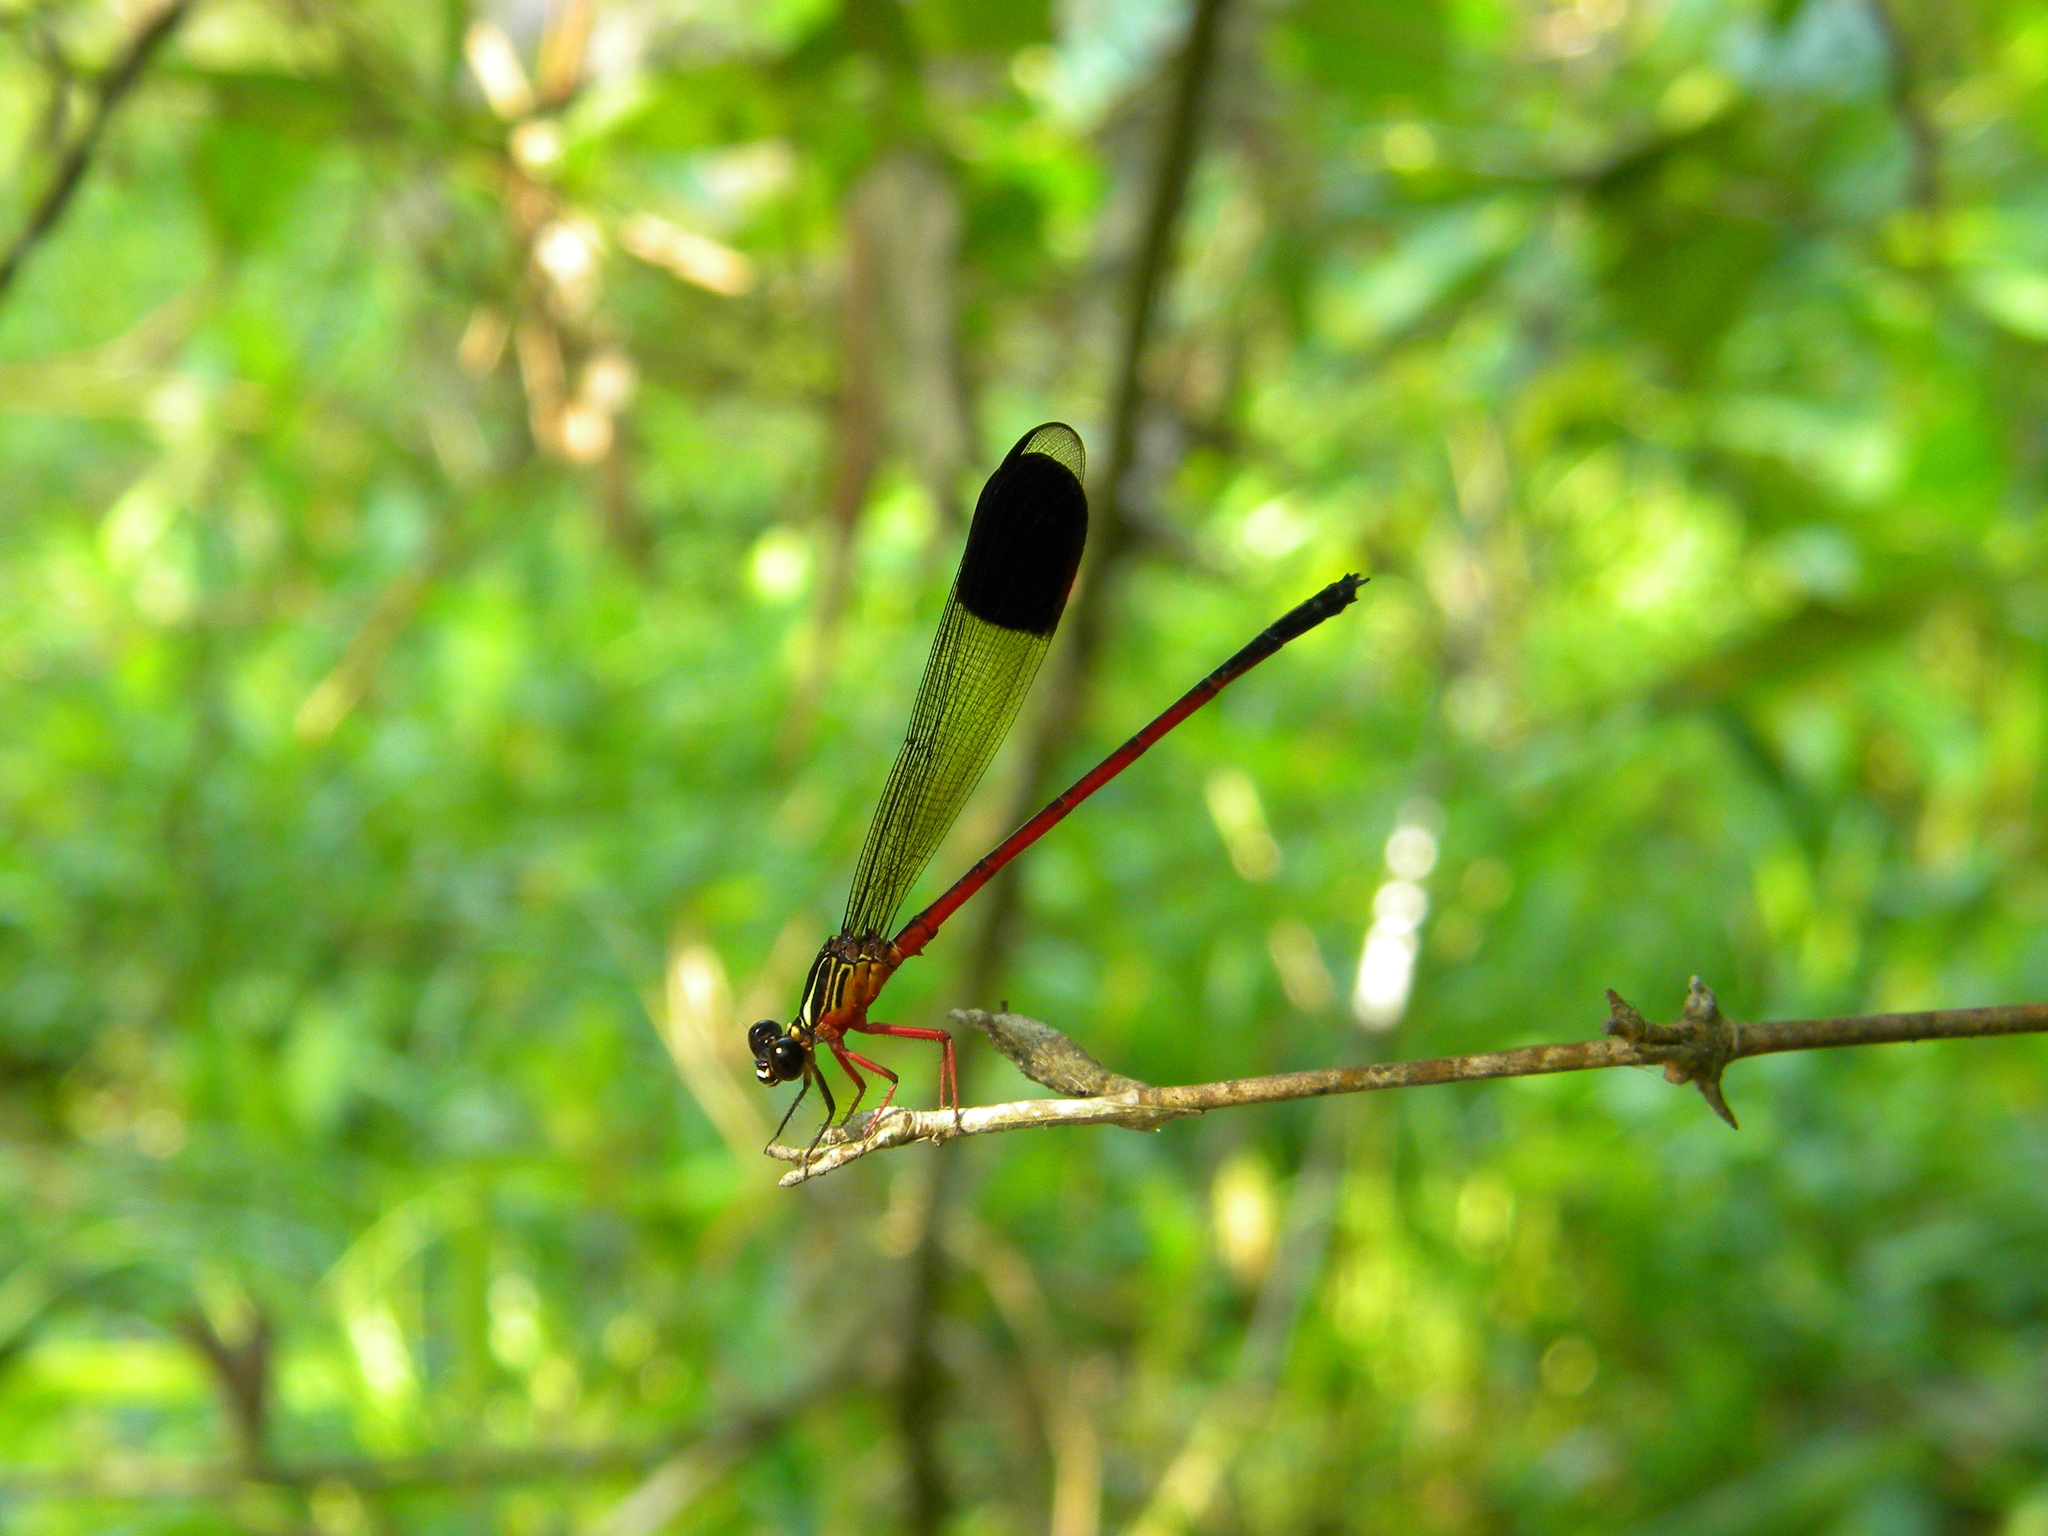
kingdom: Animalia
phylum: Arthropoda
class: Insecta
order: Odonata
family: Euphaeidae
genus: Euphaea
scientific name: Euphaea fraseri
